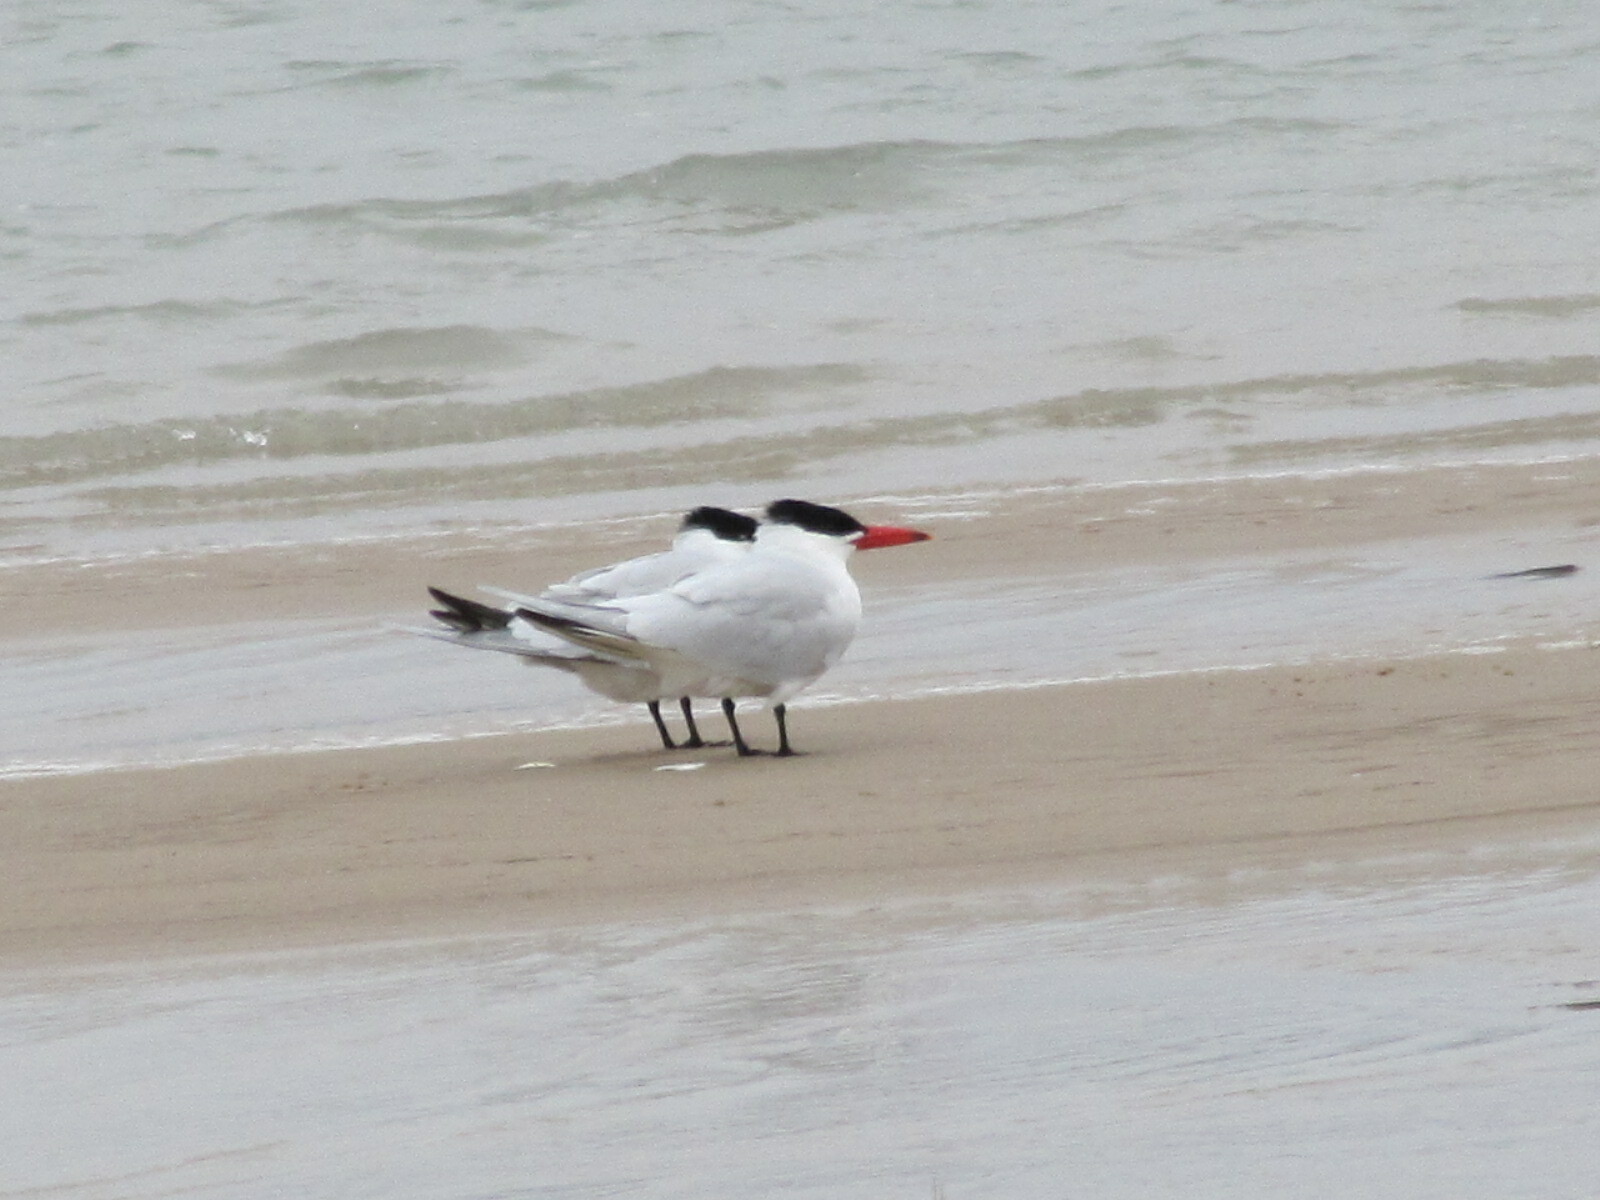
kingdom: Animalia
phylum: Chordata
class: Aves
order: Charadriiformes
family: Laridae
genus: Hydroprogne
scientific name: Hydroprogne caspia
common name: Caspian tern
